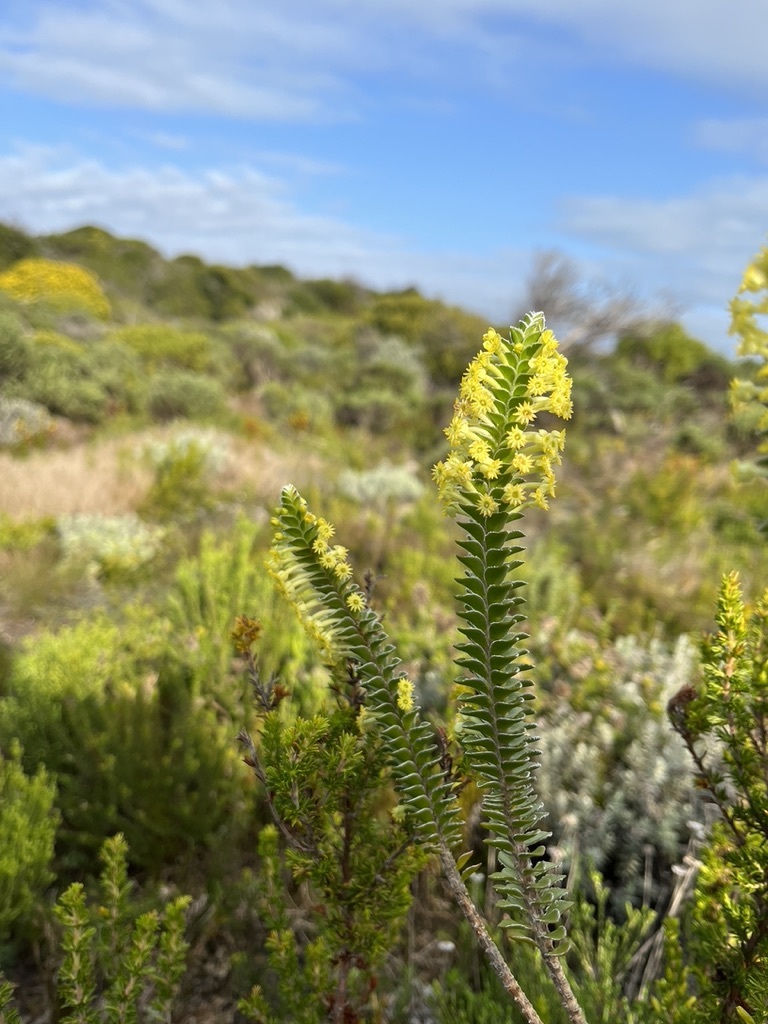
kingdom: Plantae
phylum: Tracheophyta
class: Magnoliopsida
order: Malvales
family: Thymelaeaceae
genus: Struthiola
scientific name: Struthiola argentea
